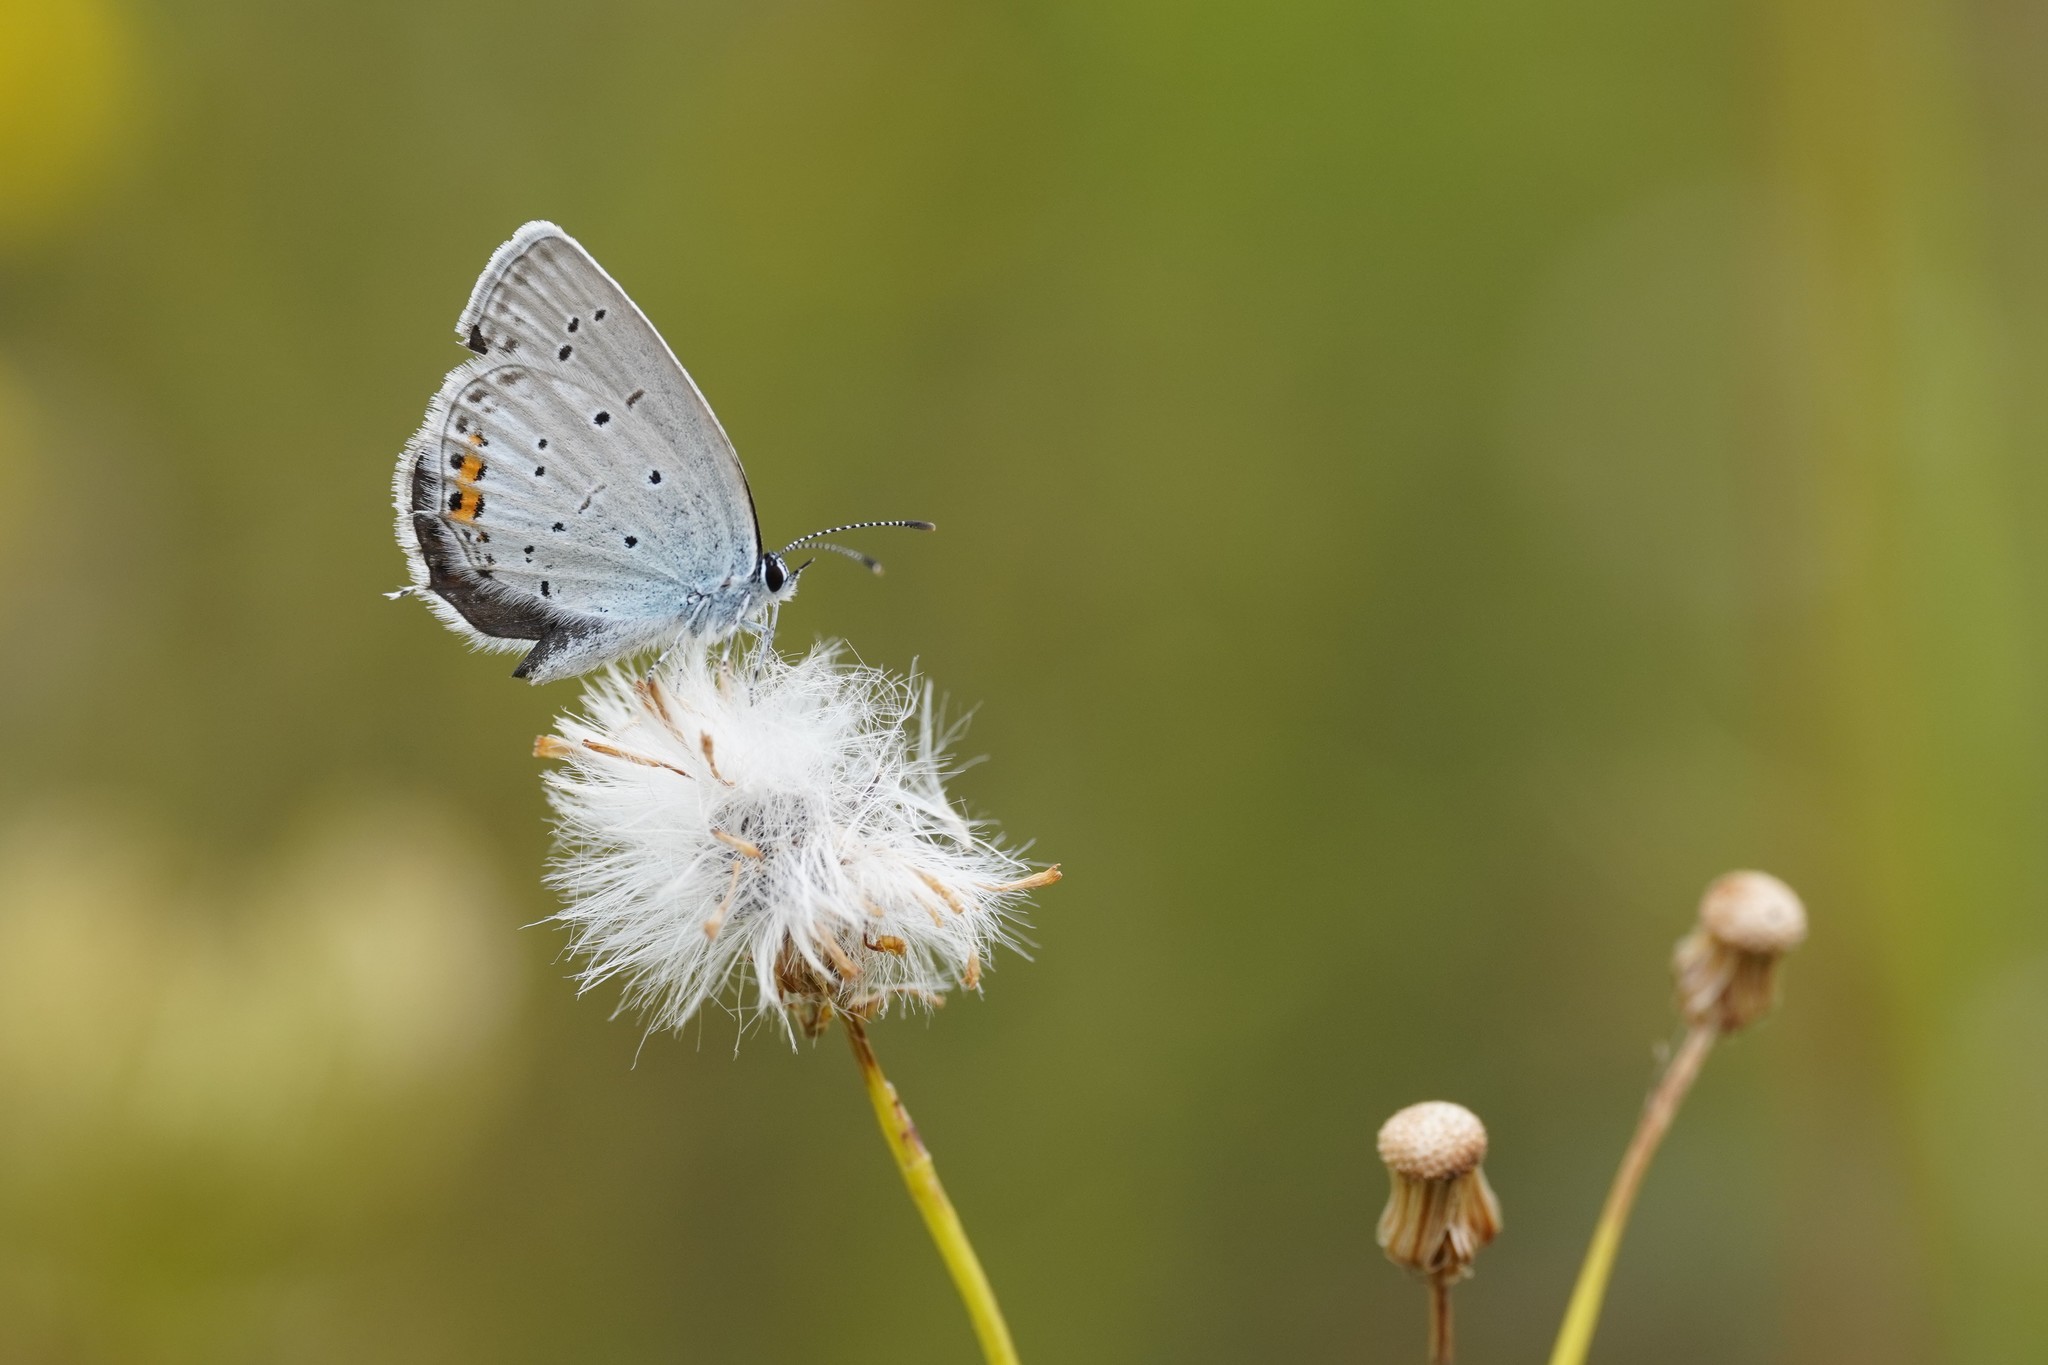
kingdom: Animalia
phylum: Arthropoda
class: Insecta
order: Lepidoptera
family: Lycaenidae
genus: Elkalyce
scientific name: Elkalyce argiades
